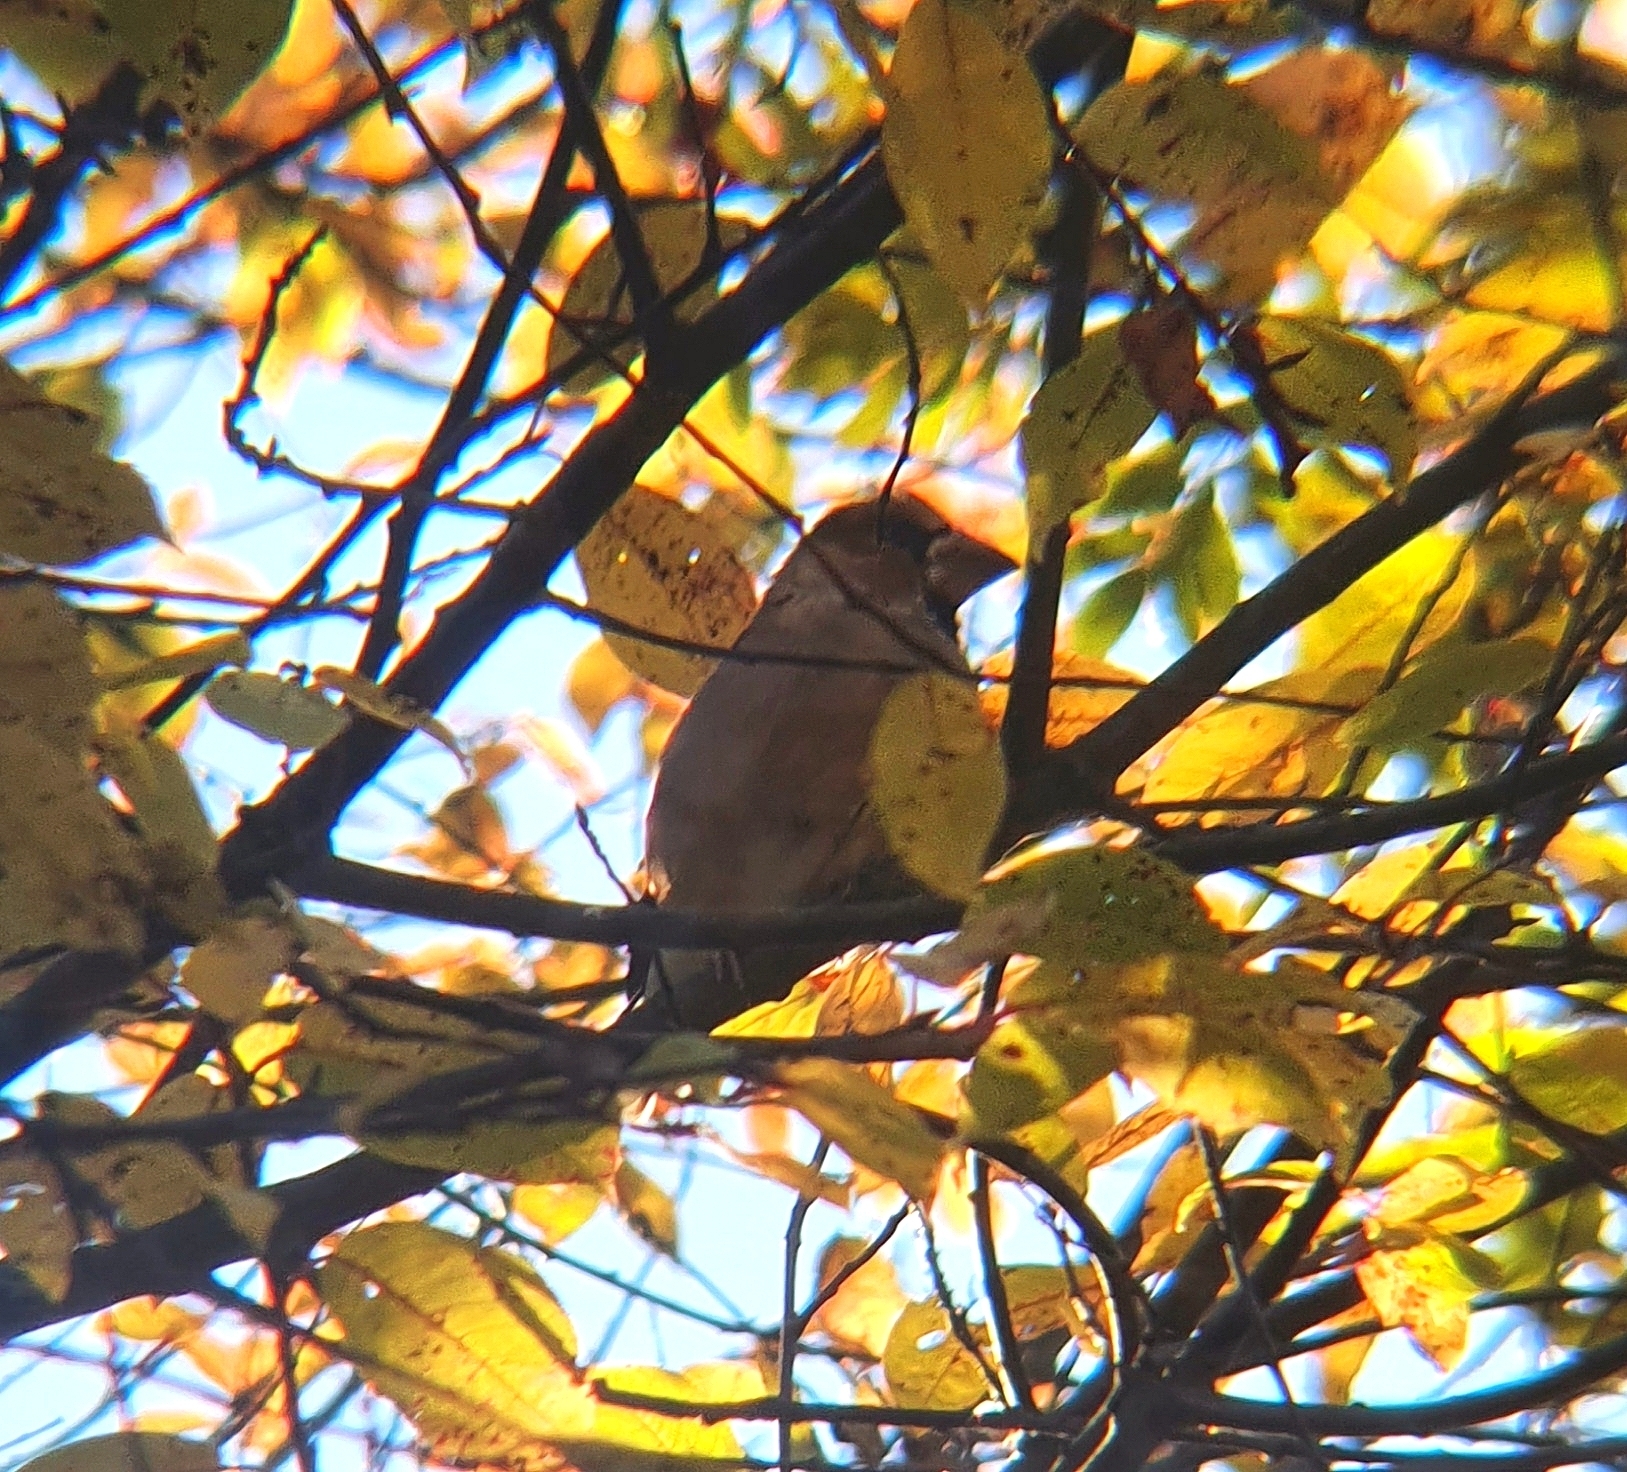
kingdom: Animalia
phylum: Chordata
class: Aves
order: Passeriformes
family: Fringillidae
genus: Coccothraustes
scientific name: Coccothraustes coccothraustes
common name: Hawfinch
